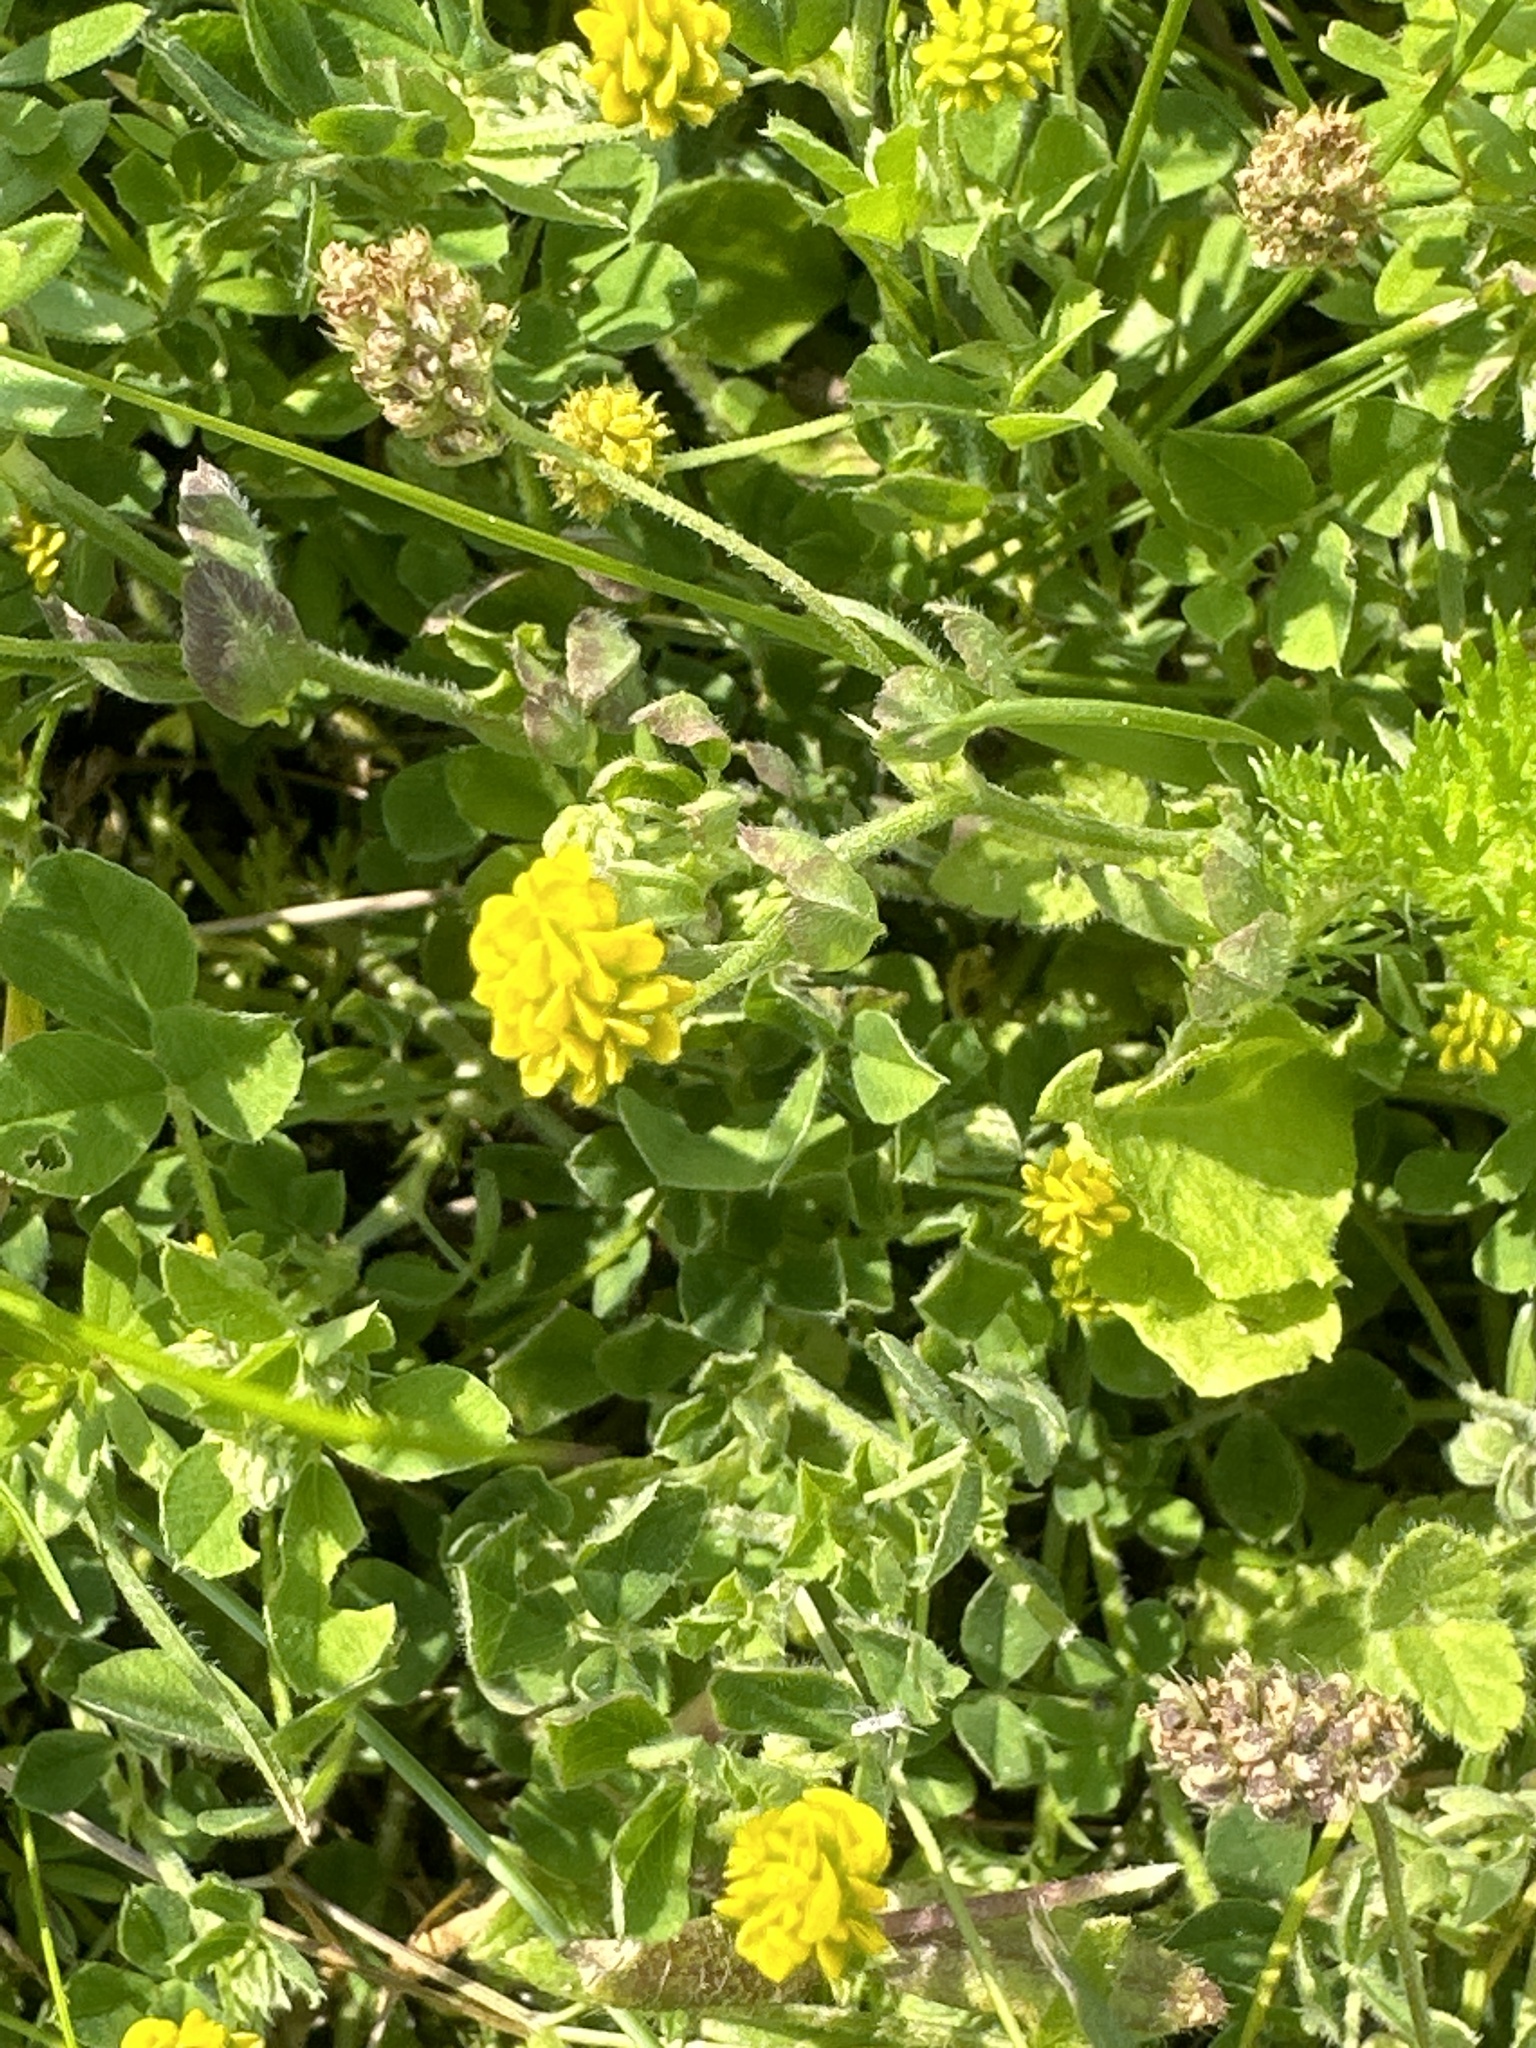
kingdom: Plantae
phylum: Tracheophyta
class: Magnoliopsida
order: Fabales
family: Fabaceae
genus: Medicago
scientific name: Medicago lupulina
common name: Black medick
